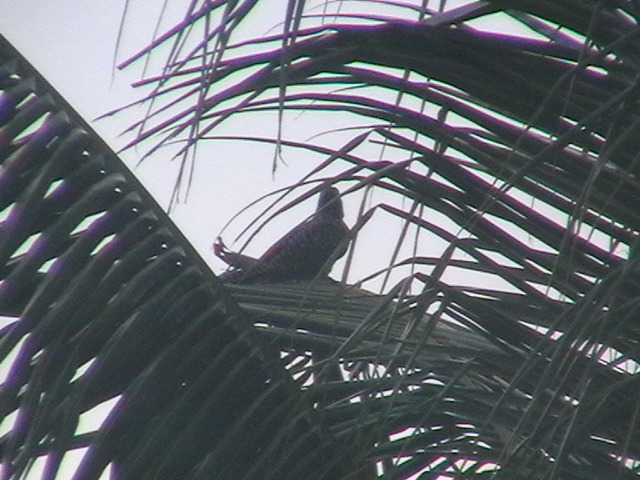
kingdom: Animalia
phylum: Chordata
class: Aves
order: Cuculiformes
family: Cuculidae
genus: Eudynamys
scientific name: Eudynamys scolopaceus
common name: Asian koel
